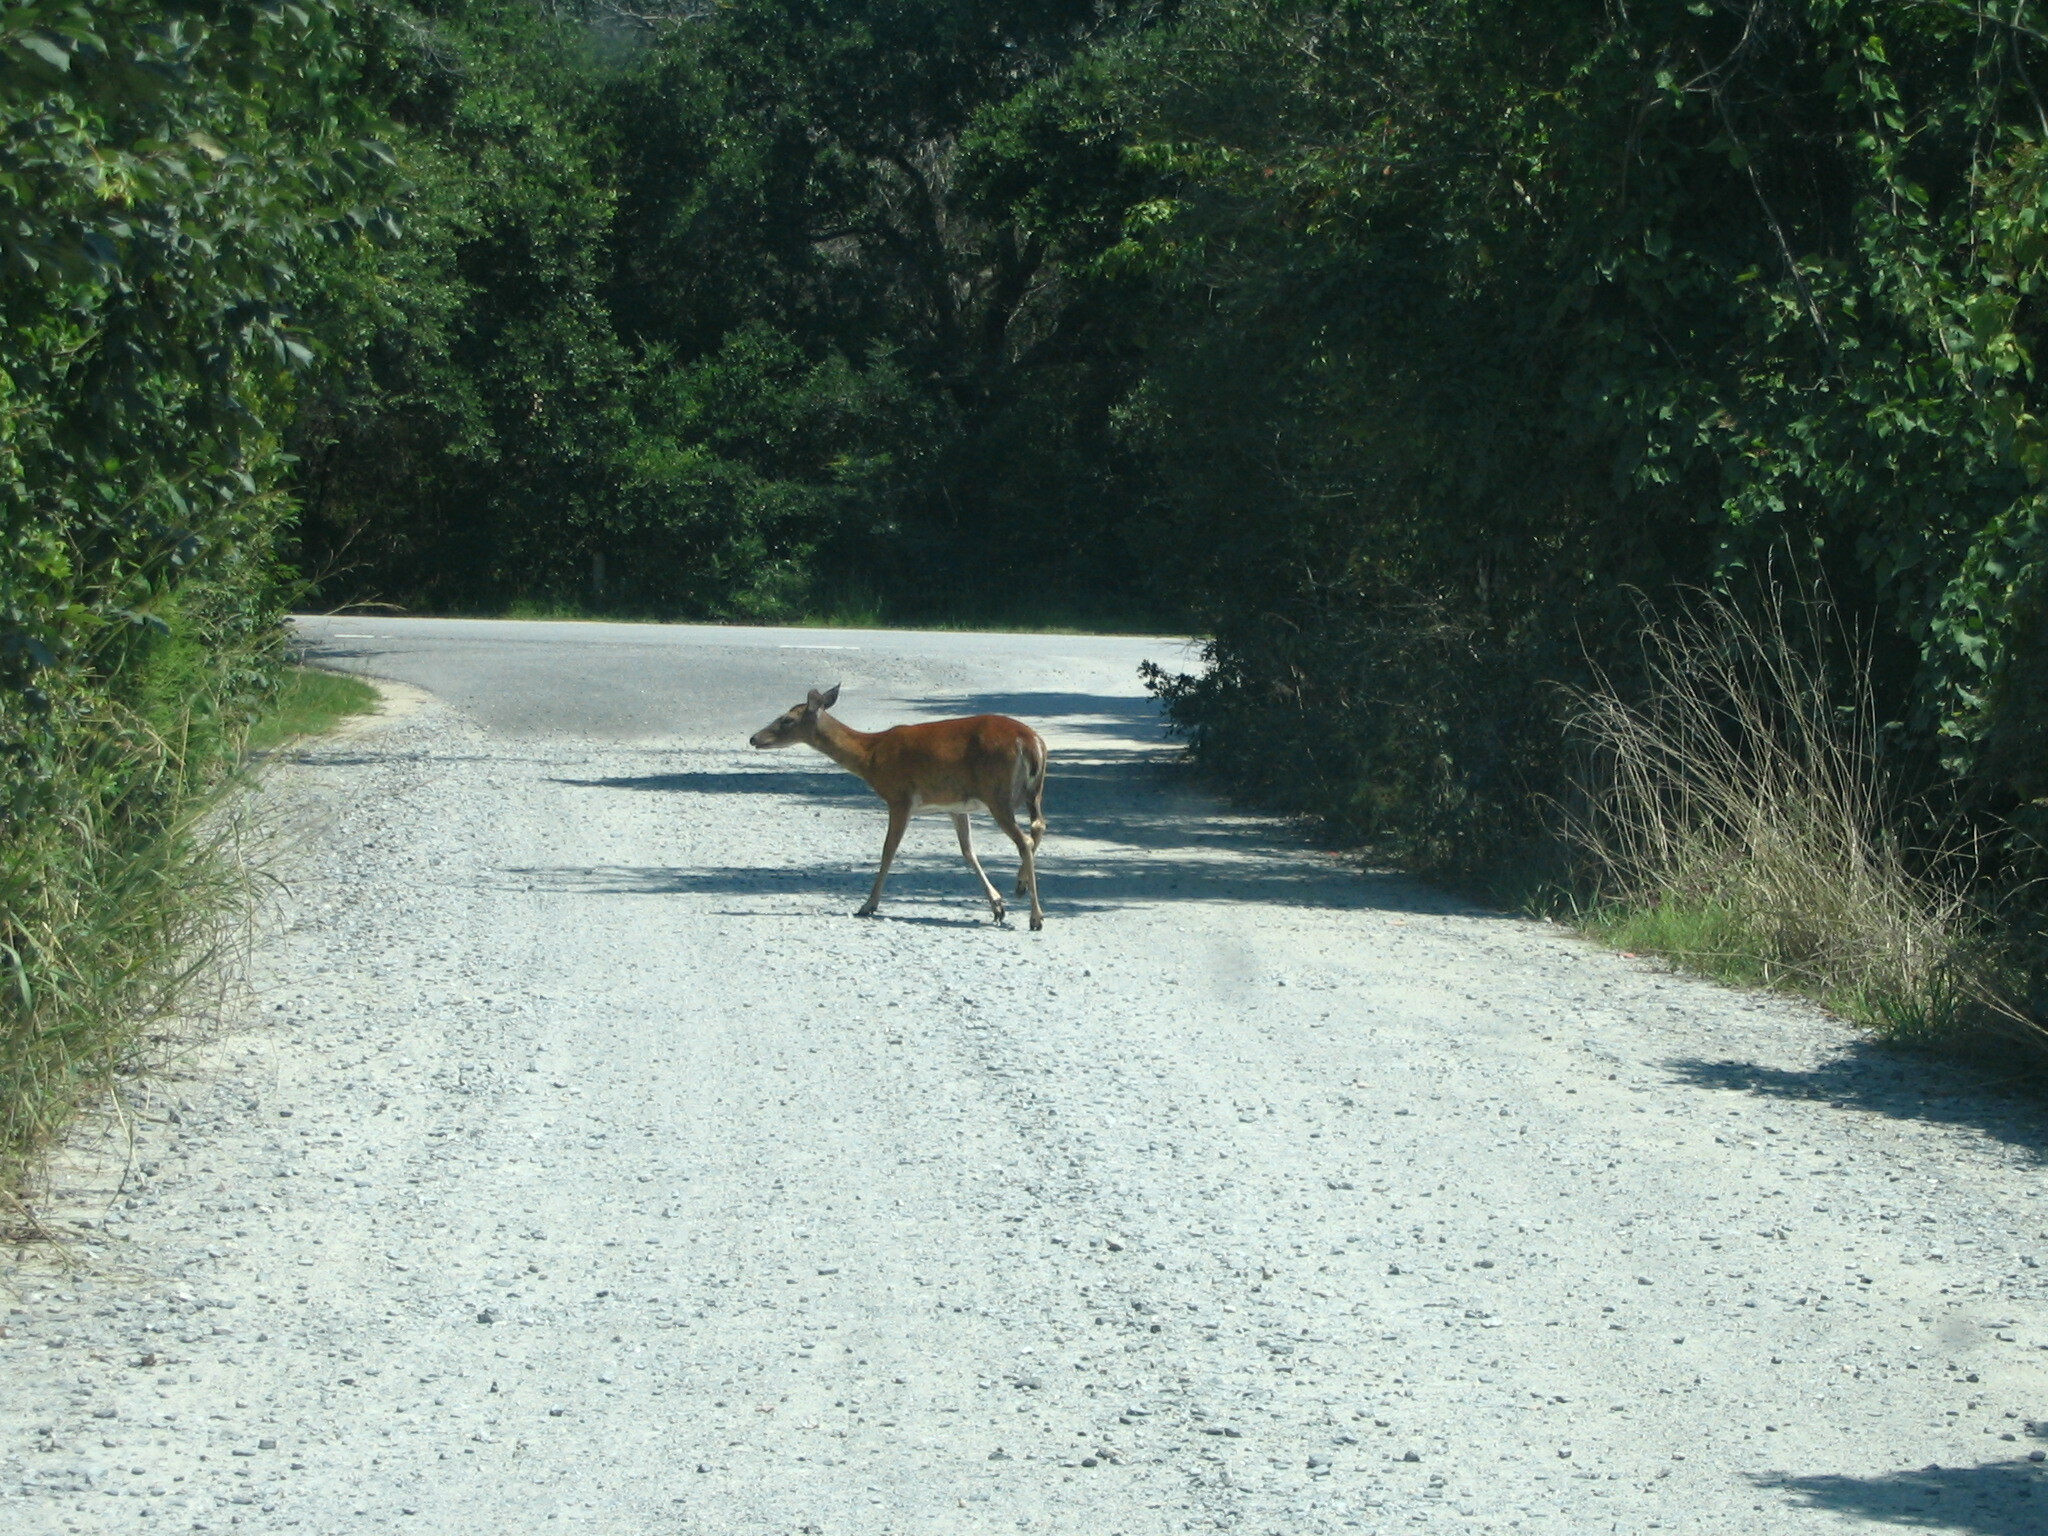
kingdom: Animalia
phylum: Chordata
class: Mammalia
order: Artiodactyla
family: Cervidae
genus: Odocoileus
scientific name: Odocoileus virginianus
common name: White-tailed deer
